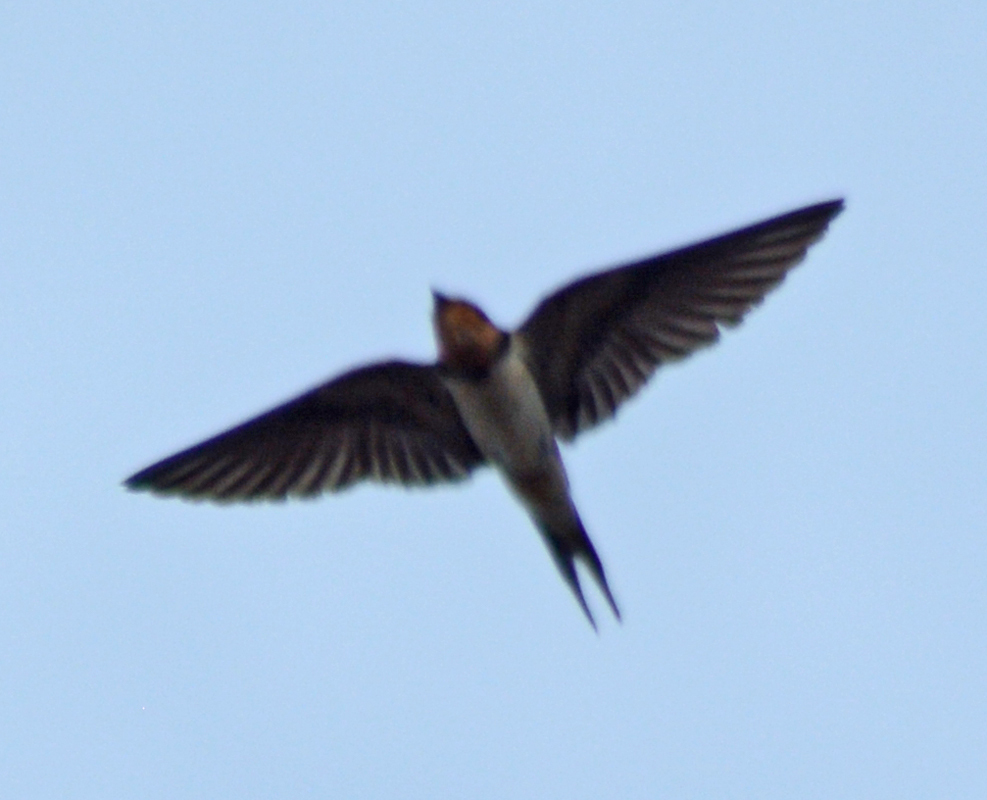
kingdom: Animalia
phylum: Chordata
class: Aves
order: Passeriformes
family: Hirundinidae
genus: Hirundo
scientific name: Hirundo rustica
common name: Barn swallow
